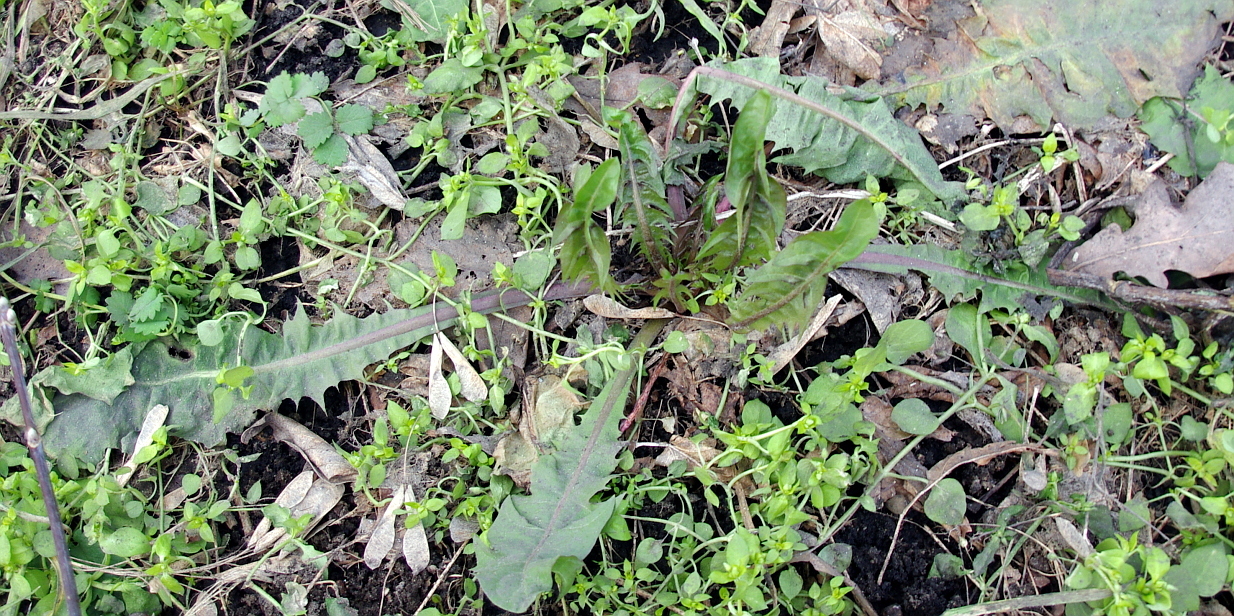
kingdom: Plantae
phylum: Tracheophyta
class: Magnoliopsida
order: Asterales
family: Asteraceae
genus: Taraxacum
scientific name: Taraxacum officinale
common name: Common dandelion
